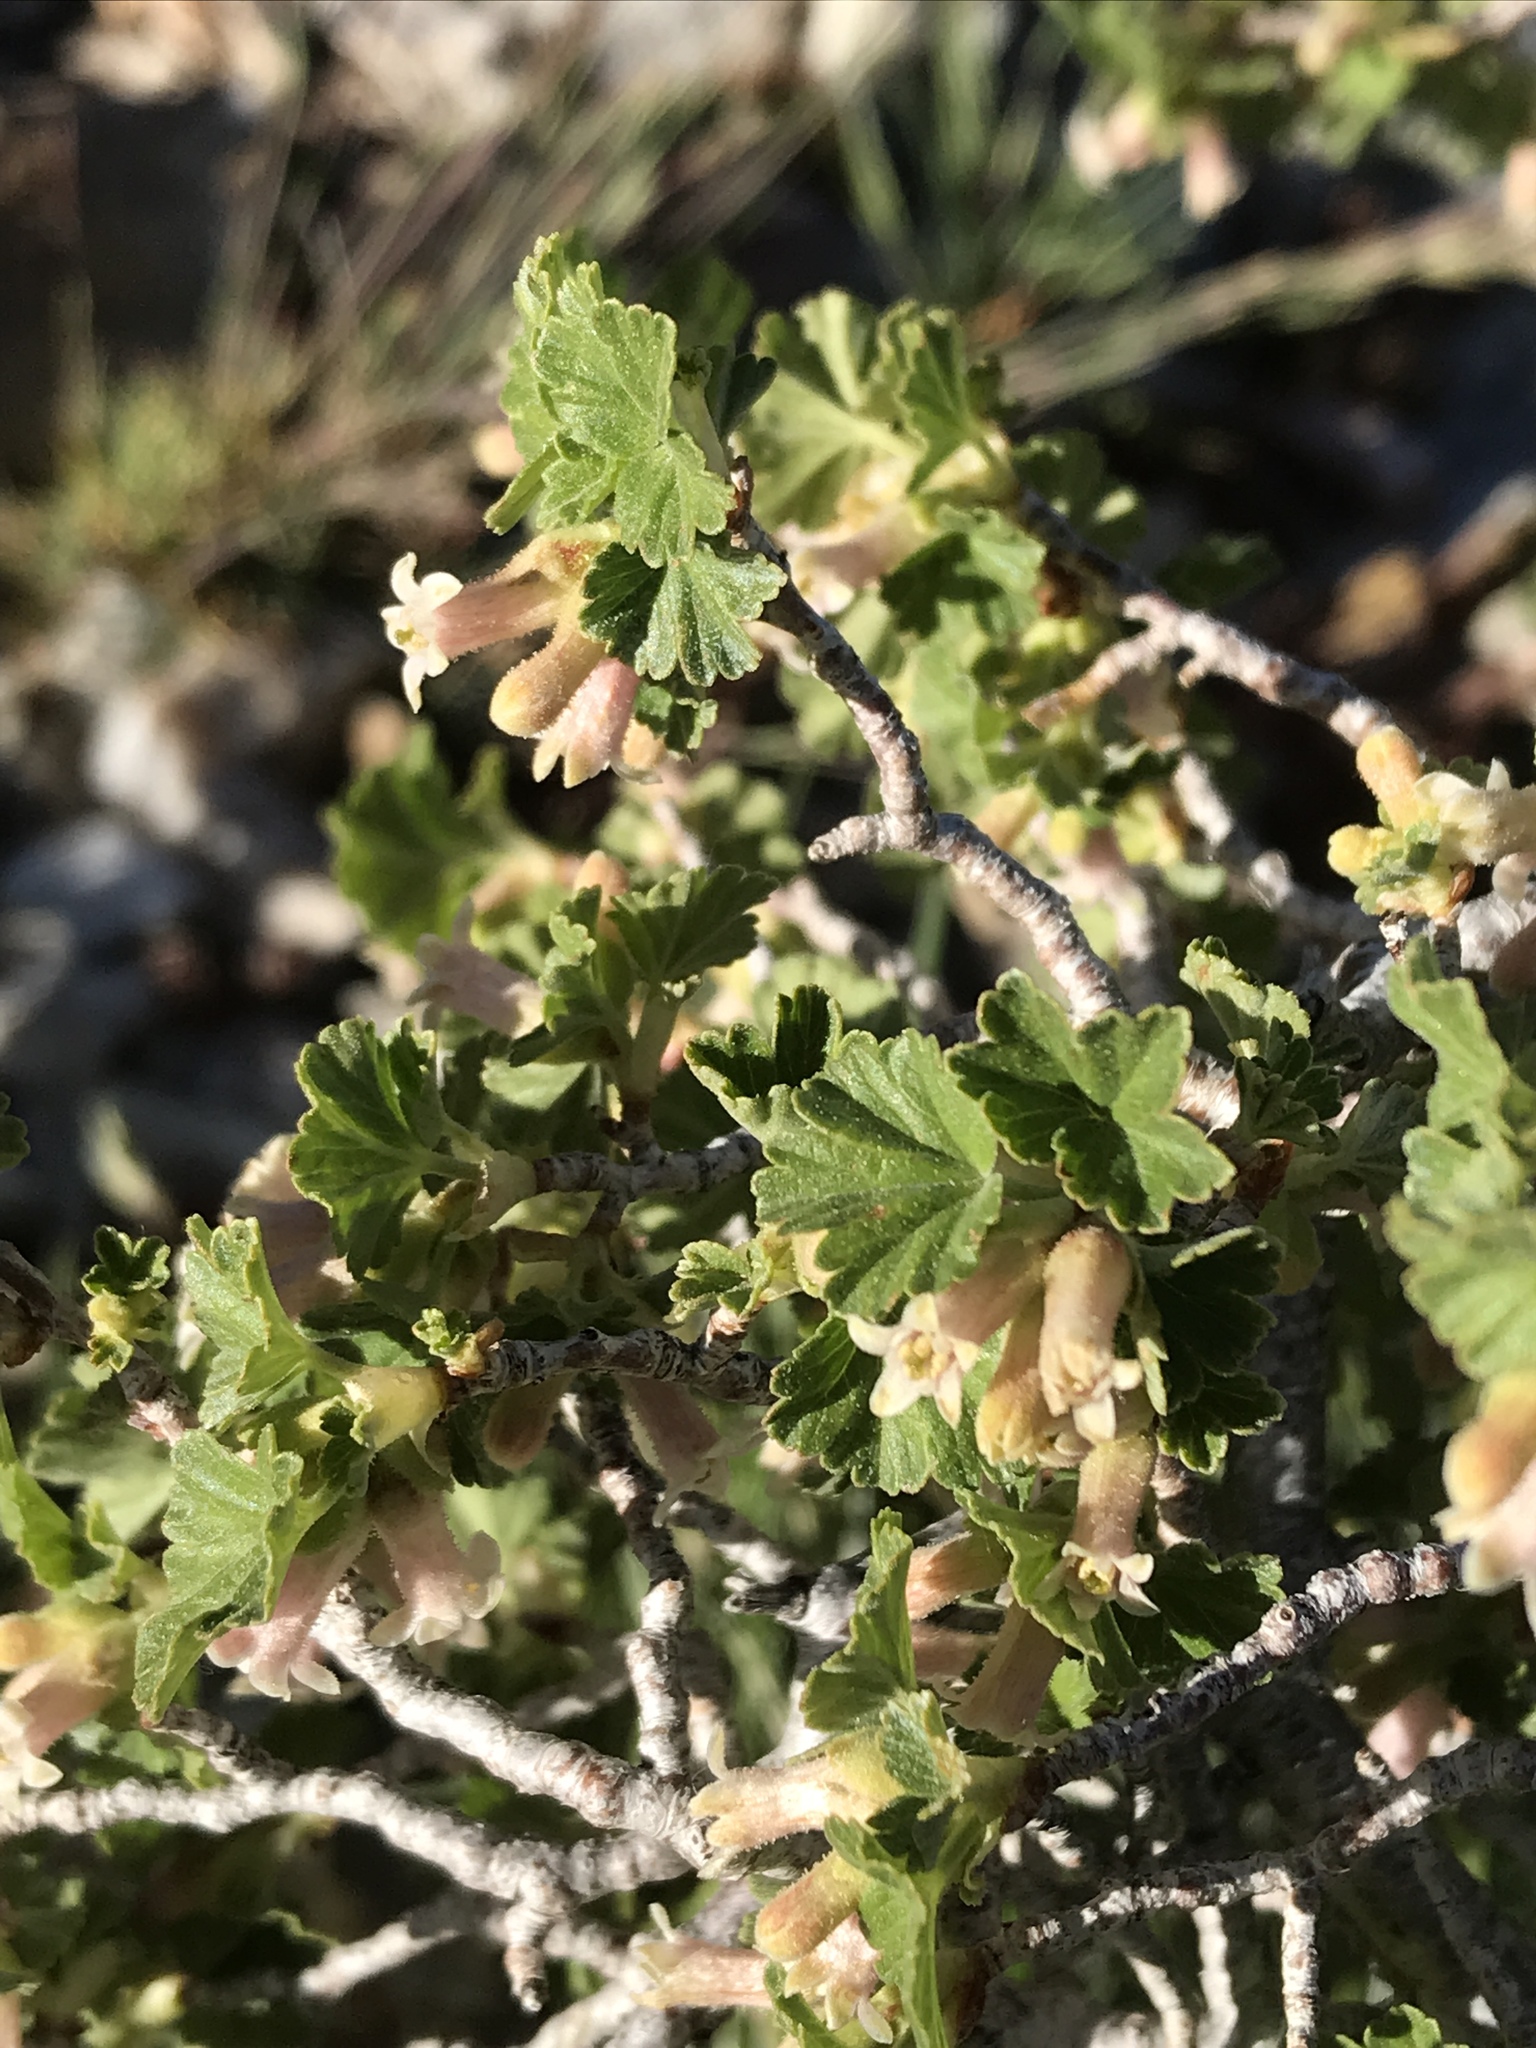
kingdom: Plantae
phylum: Tracheophyta
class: Magnoliopsida
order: Saxifragales
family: Grossulariaceae
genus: Ribes
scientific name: Ribes cereum
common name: Wax currant
